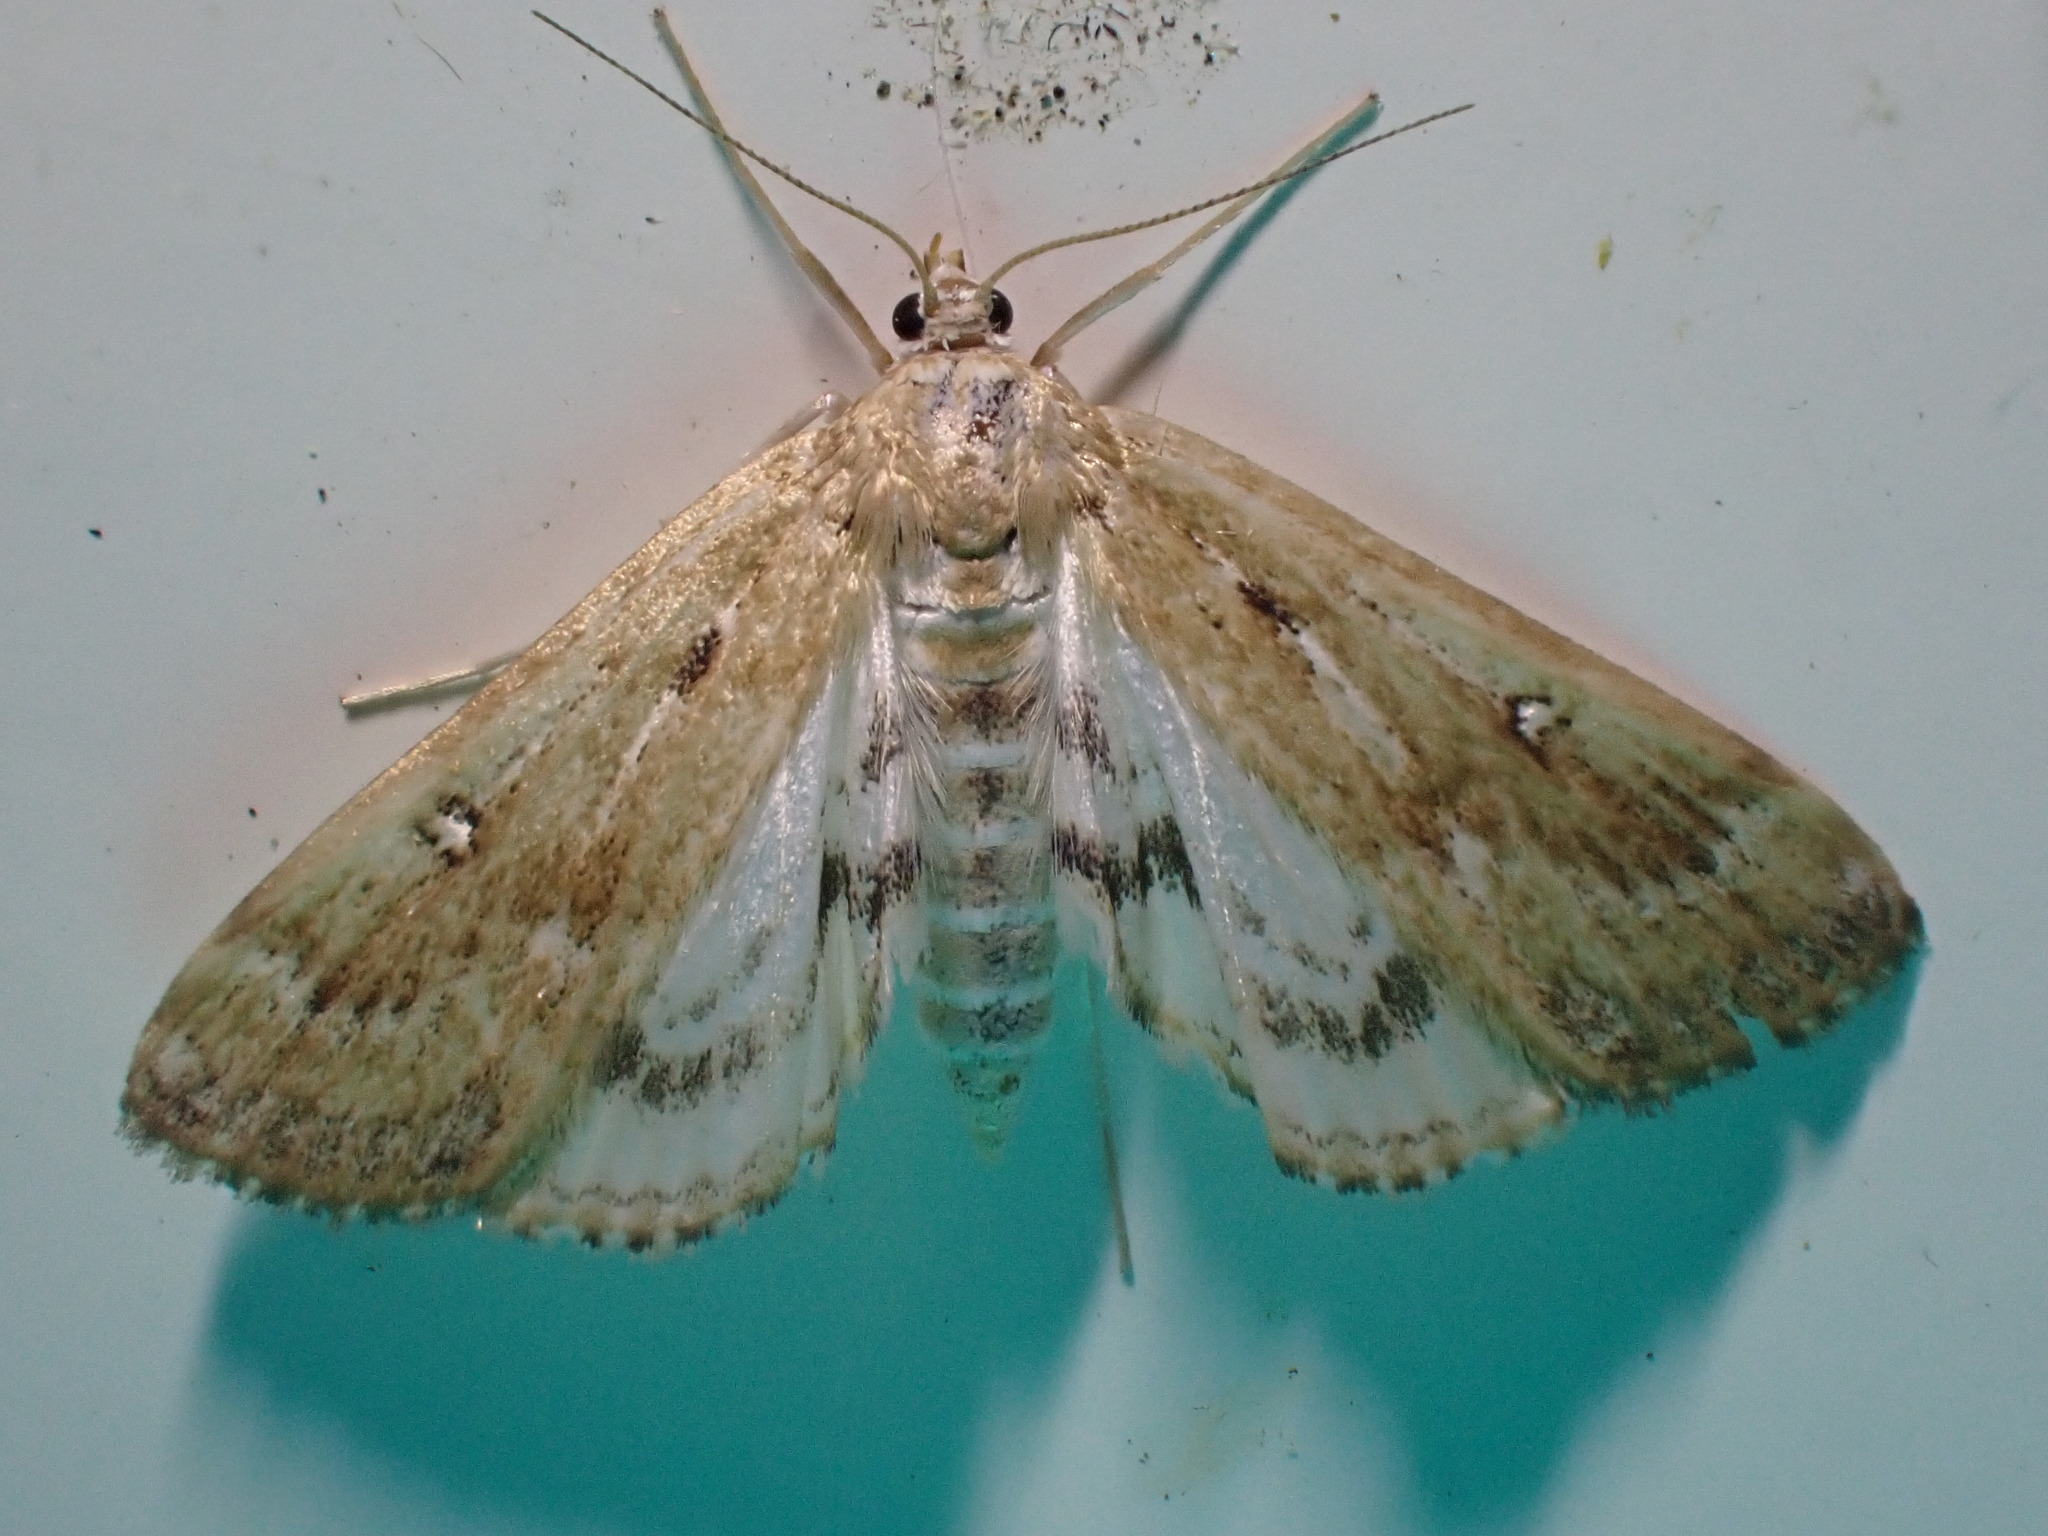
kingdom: Animalia
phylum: Arthropoda
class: Insecta
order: Lepidoptera
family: Crambidae
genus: Parapoynx
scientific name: Parapoynx stratiotata
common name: Ringed china-mark
